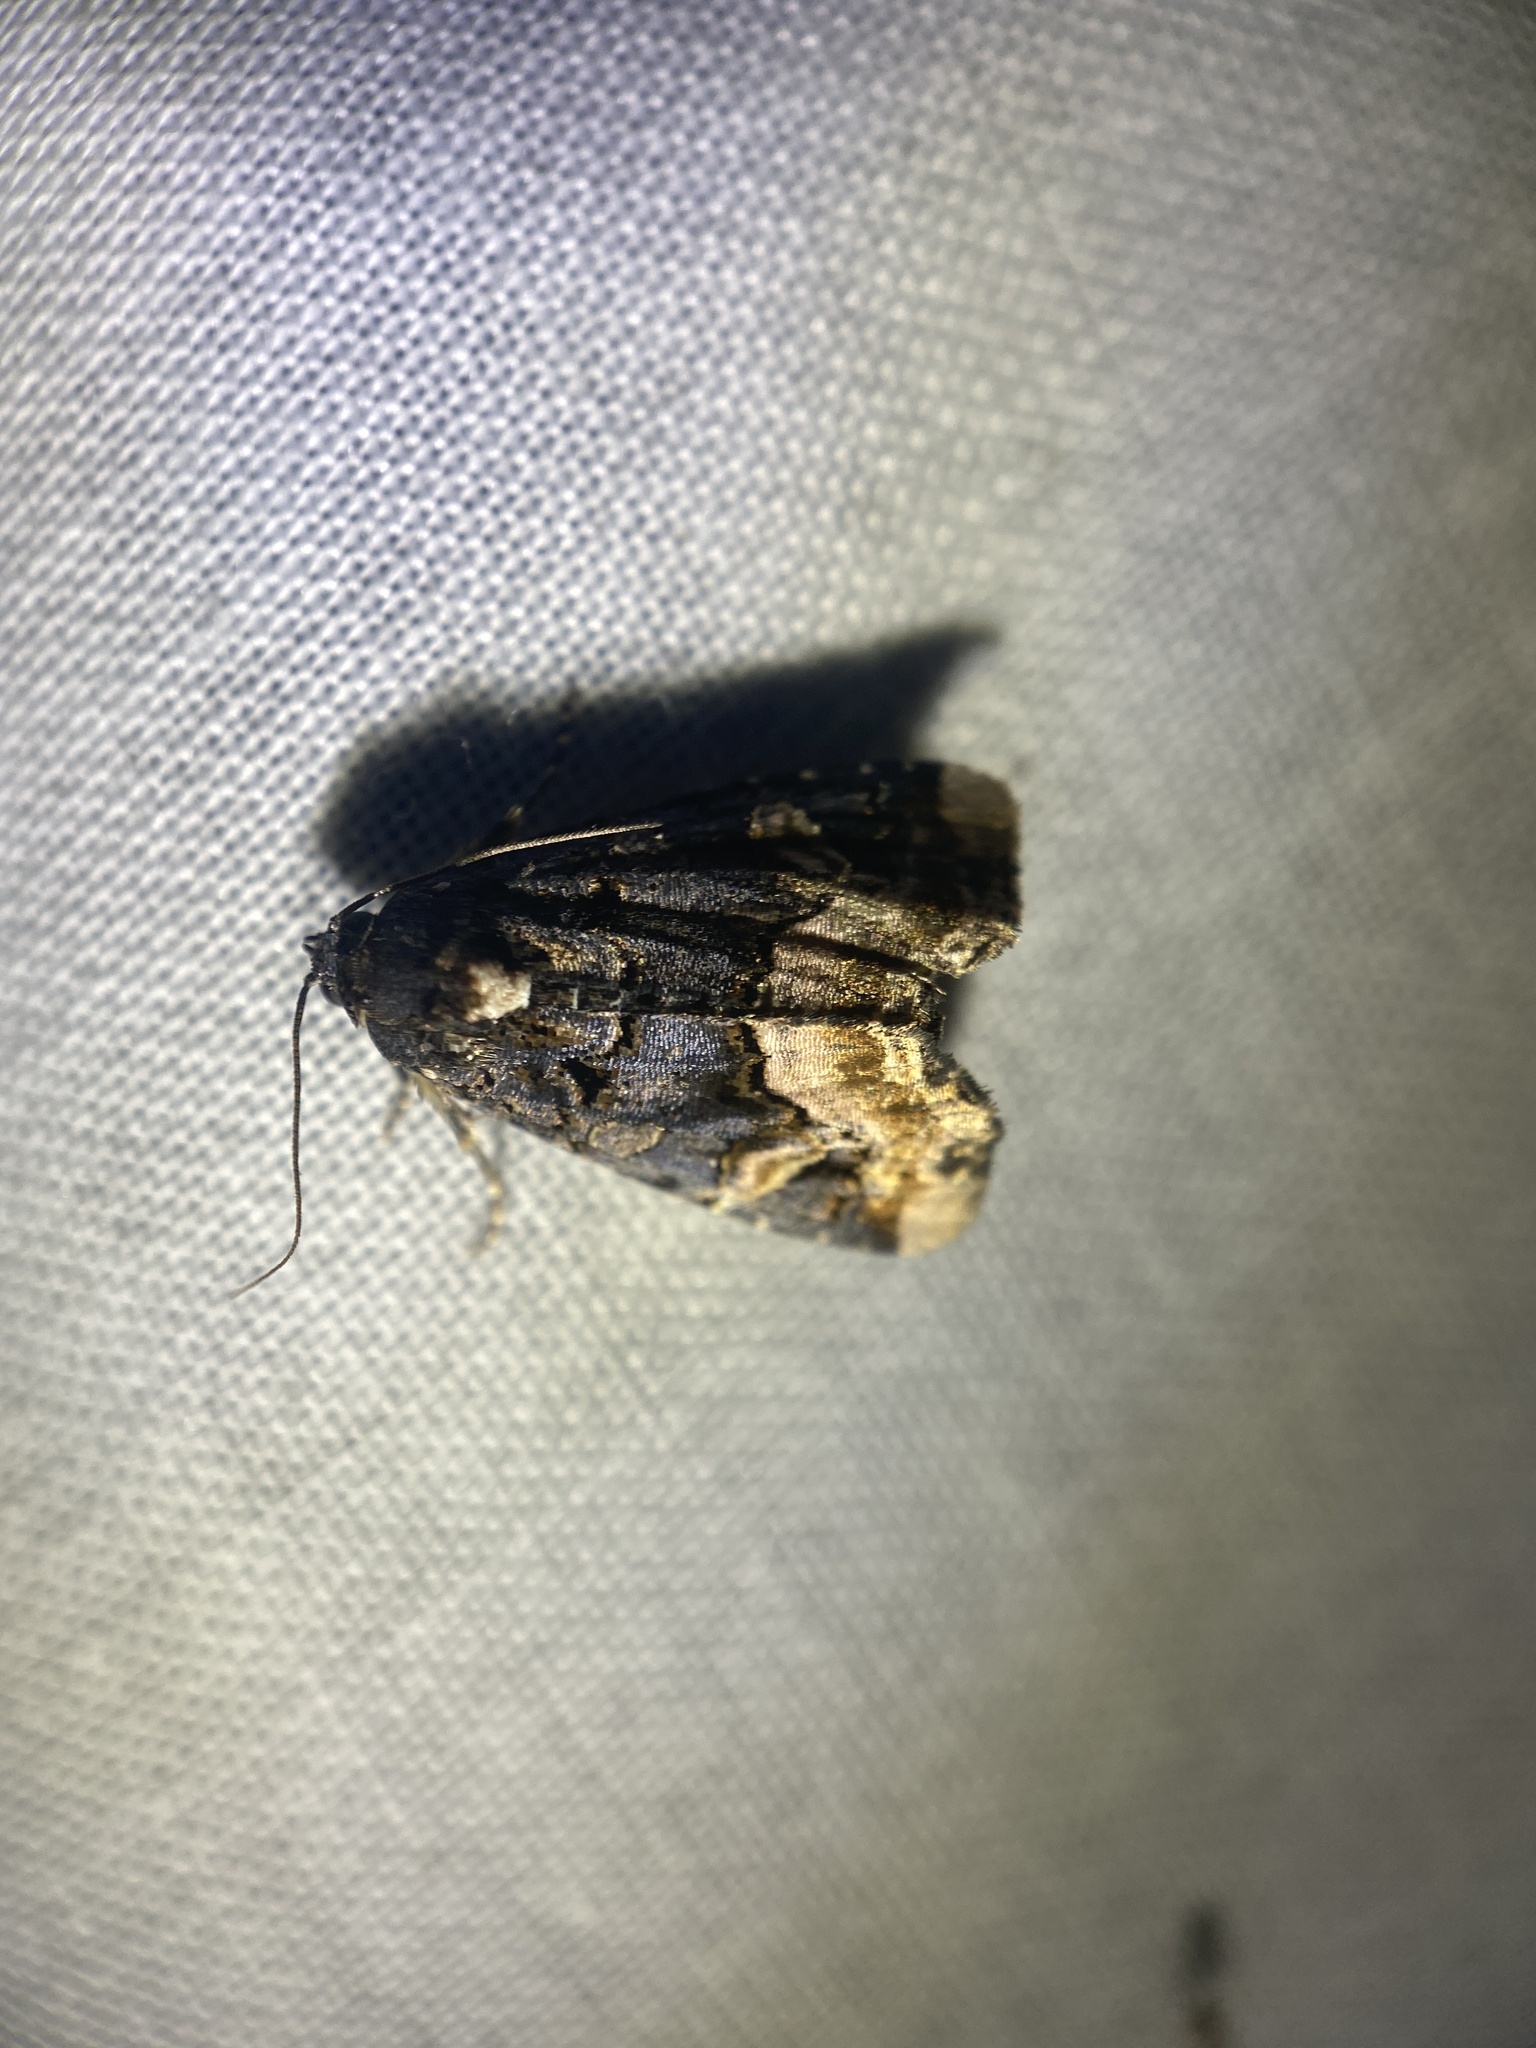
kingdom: Animalia
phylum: Arthropoda
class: Insecta
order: Lepidoptera
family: Noctuidae
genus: Homophoberia
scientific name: Homophoberia apicosa
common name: Black wedge-spot
